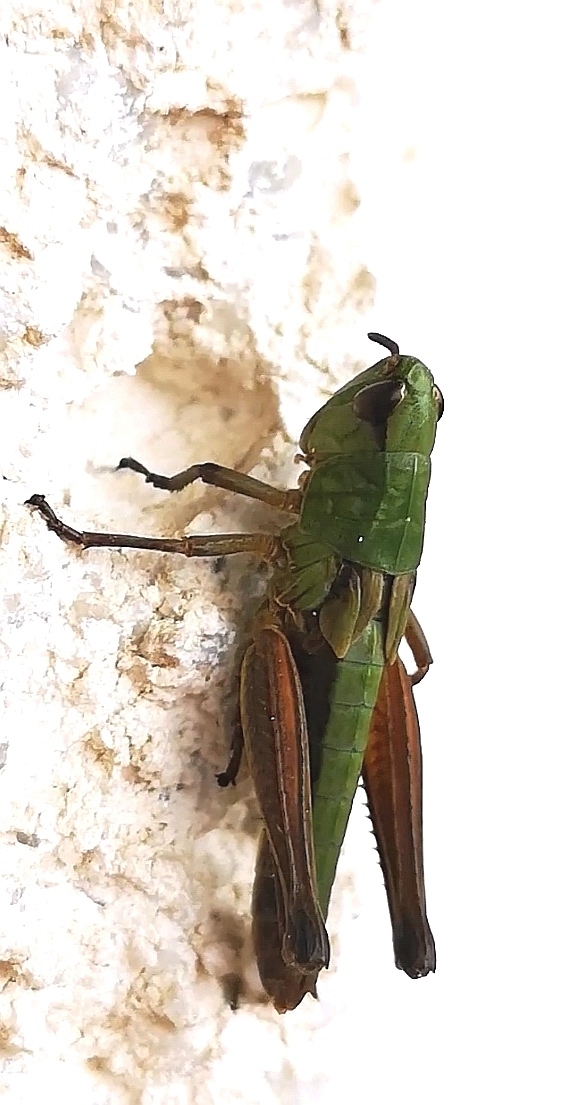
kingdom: Animalia
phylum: Arthropoda
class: Insecta
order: Orthoptera
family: Acrididae
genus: Pseudochorthippus
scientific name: Pseudochorthippus parallelus
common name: Meadow grasshopper
